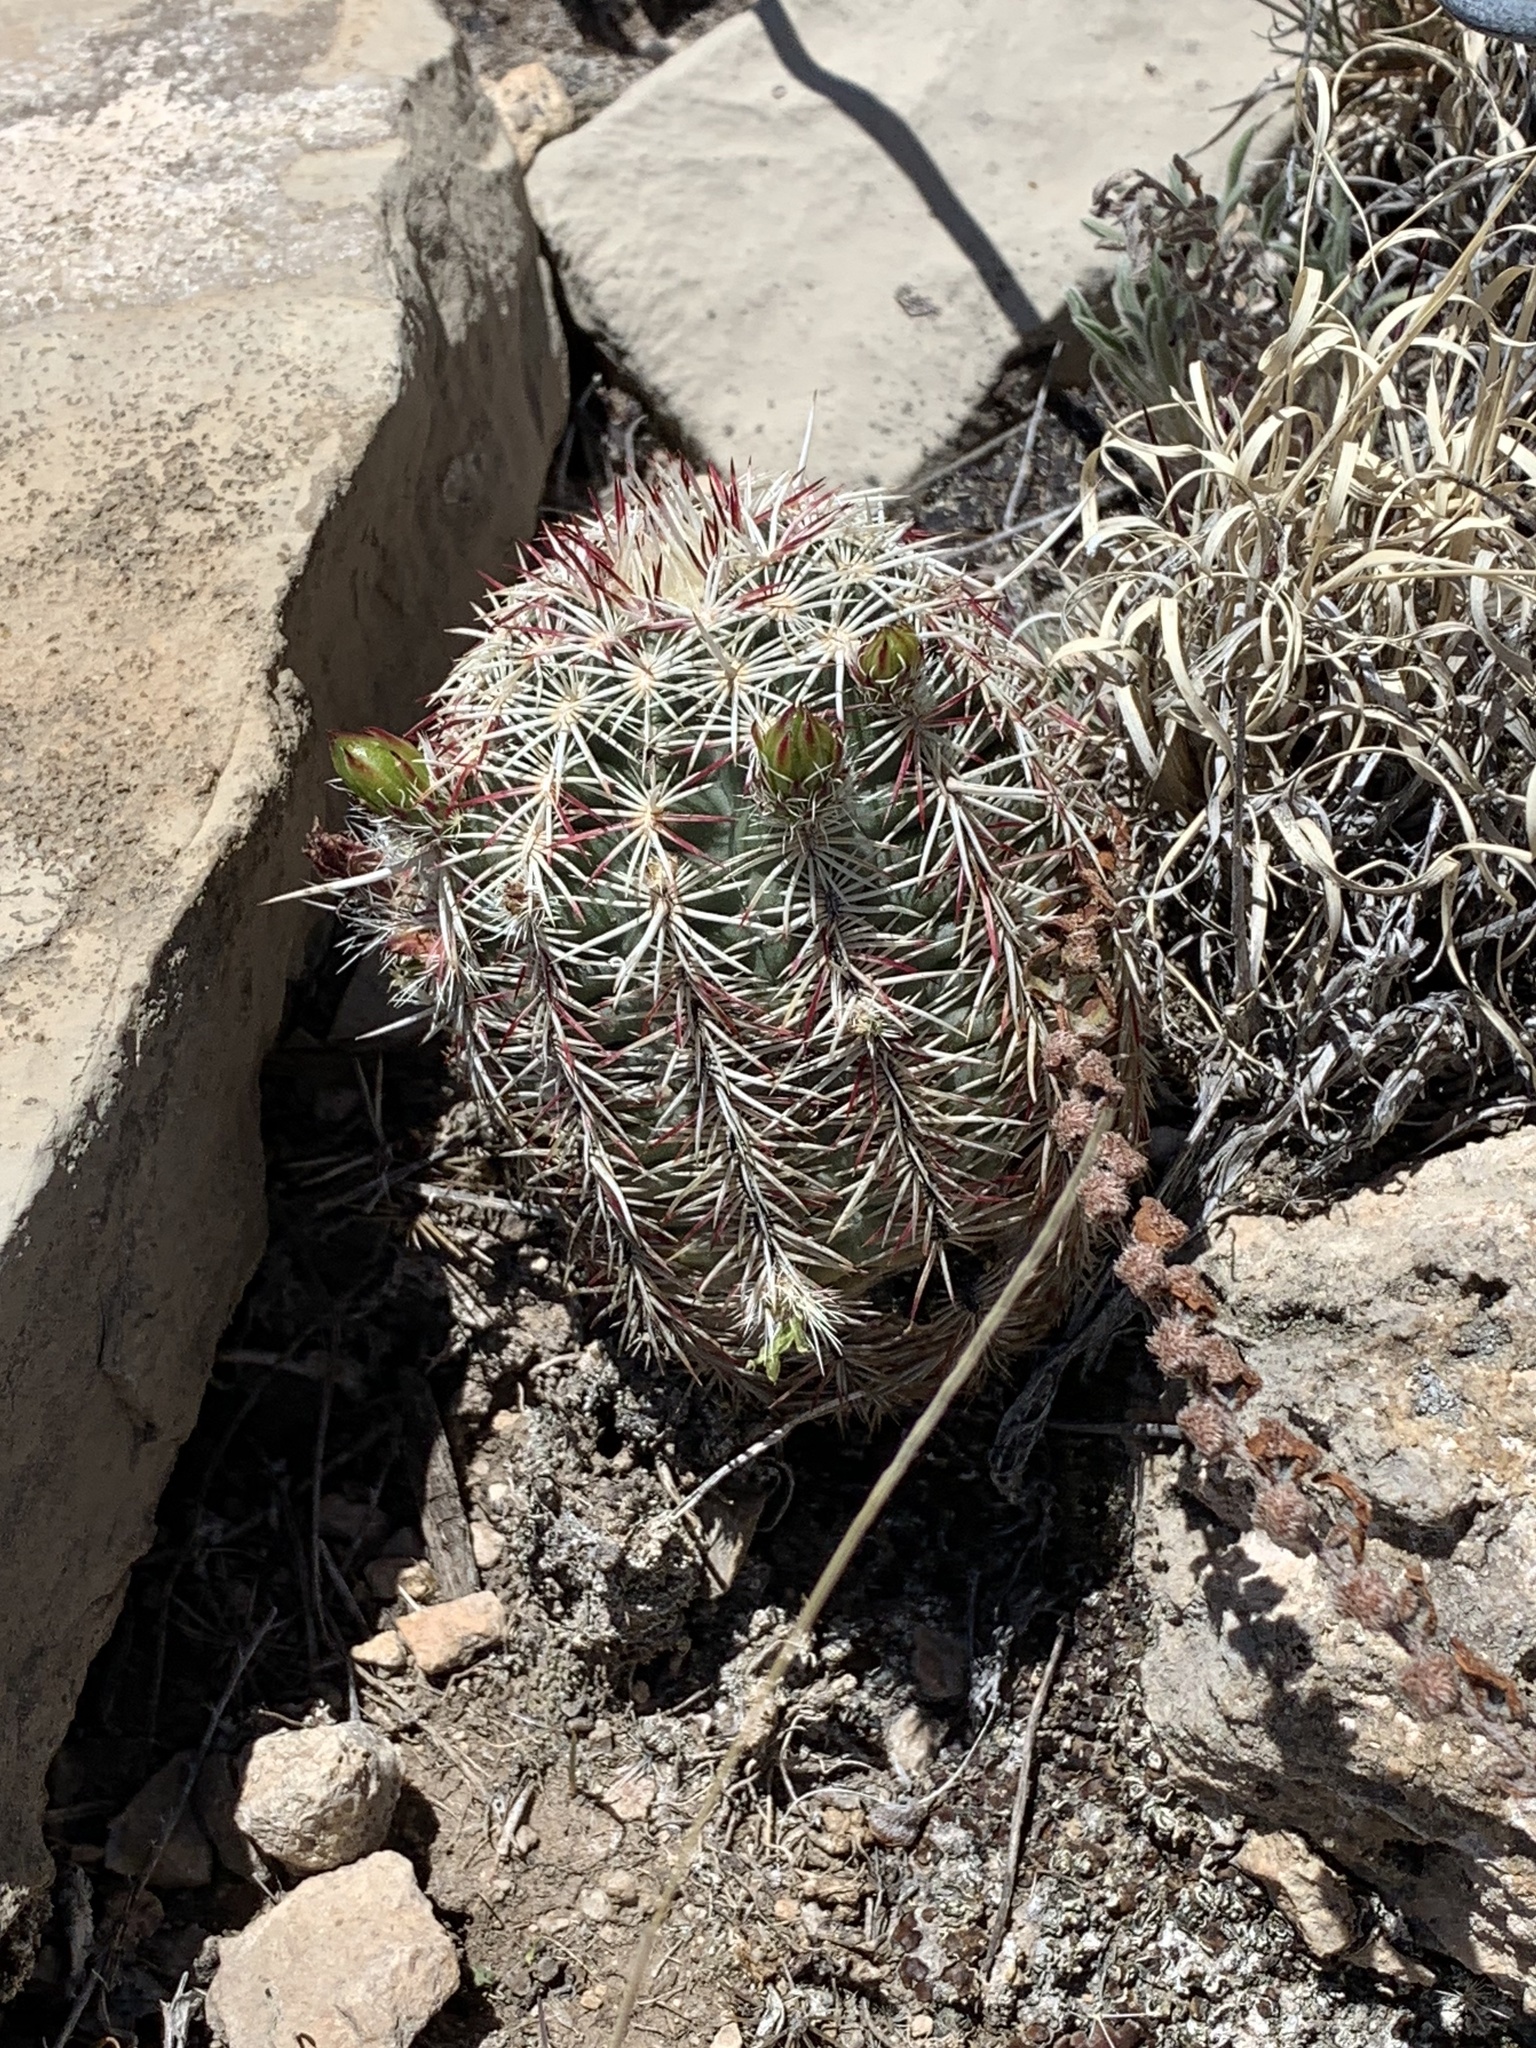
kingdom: Plantae
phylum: Tracheophyta
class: Magnoliopsida
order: Caryophyllales
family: Cactaceae
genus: Echinocereus
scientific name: Echinocereus viridiflorus
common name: Nylon hedgehog cactus
